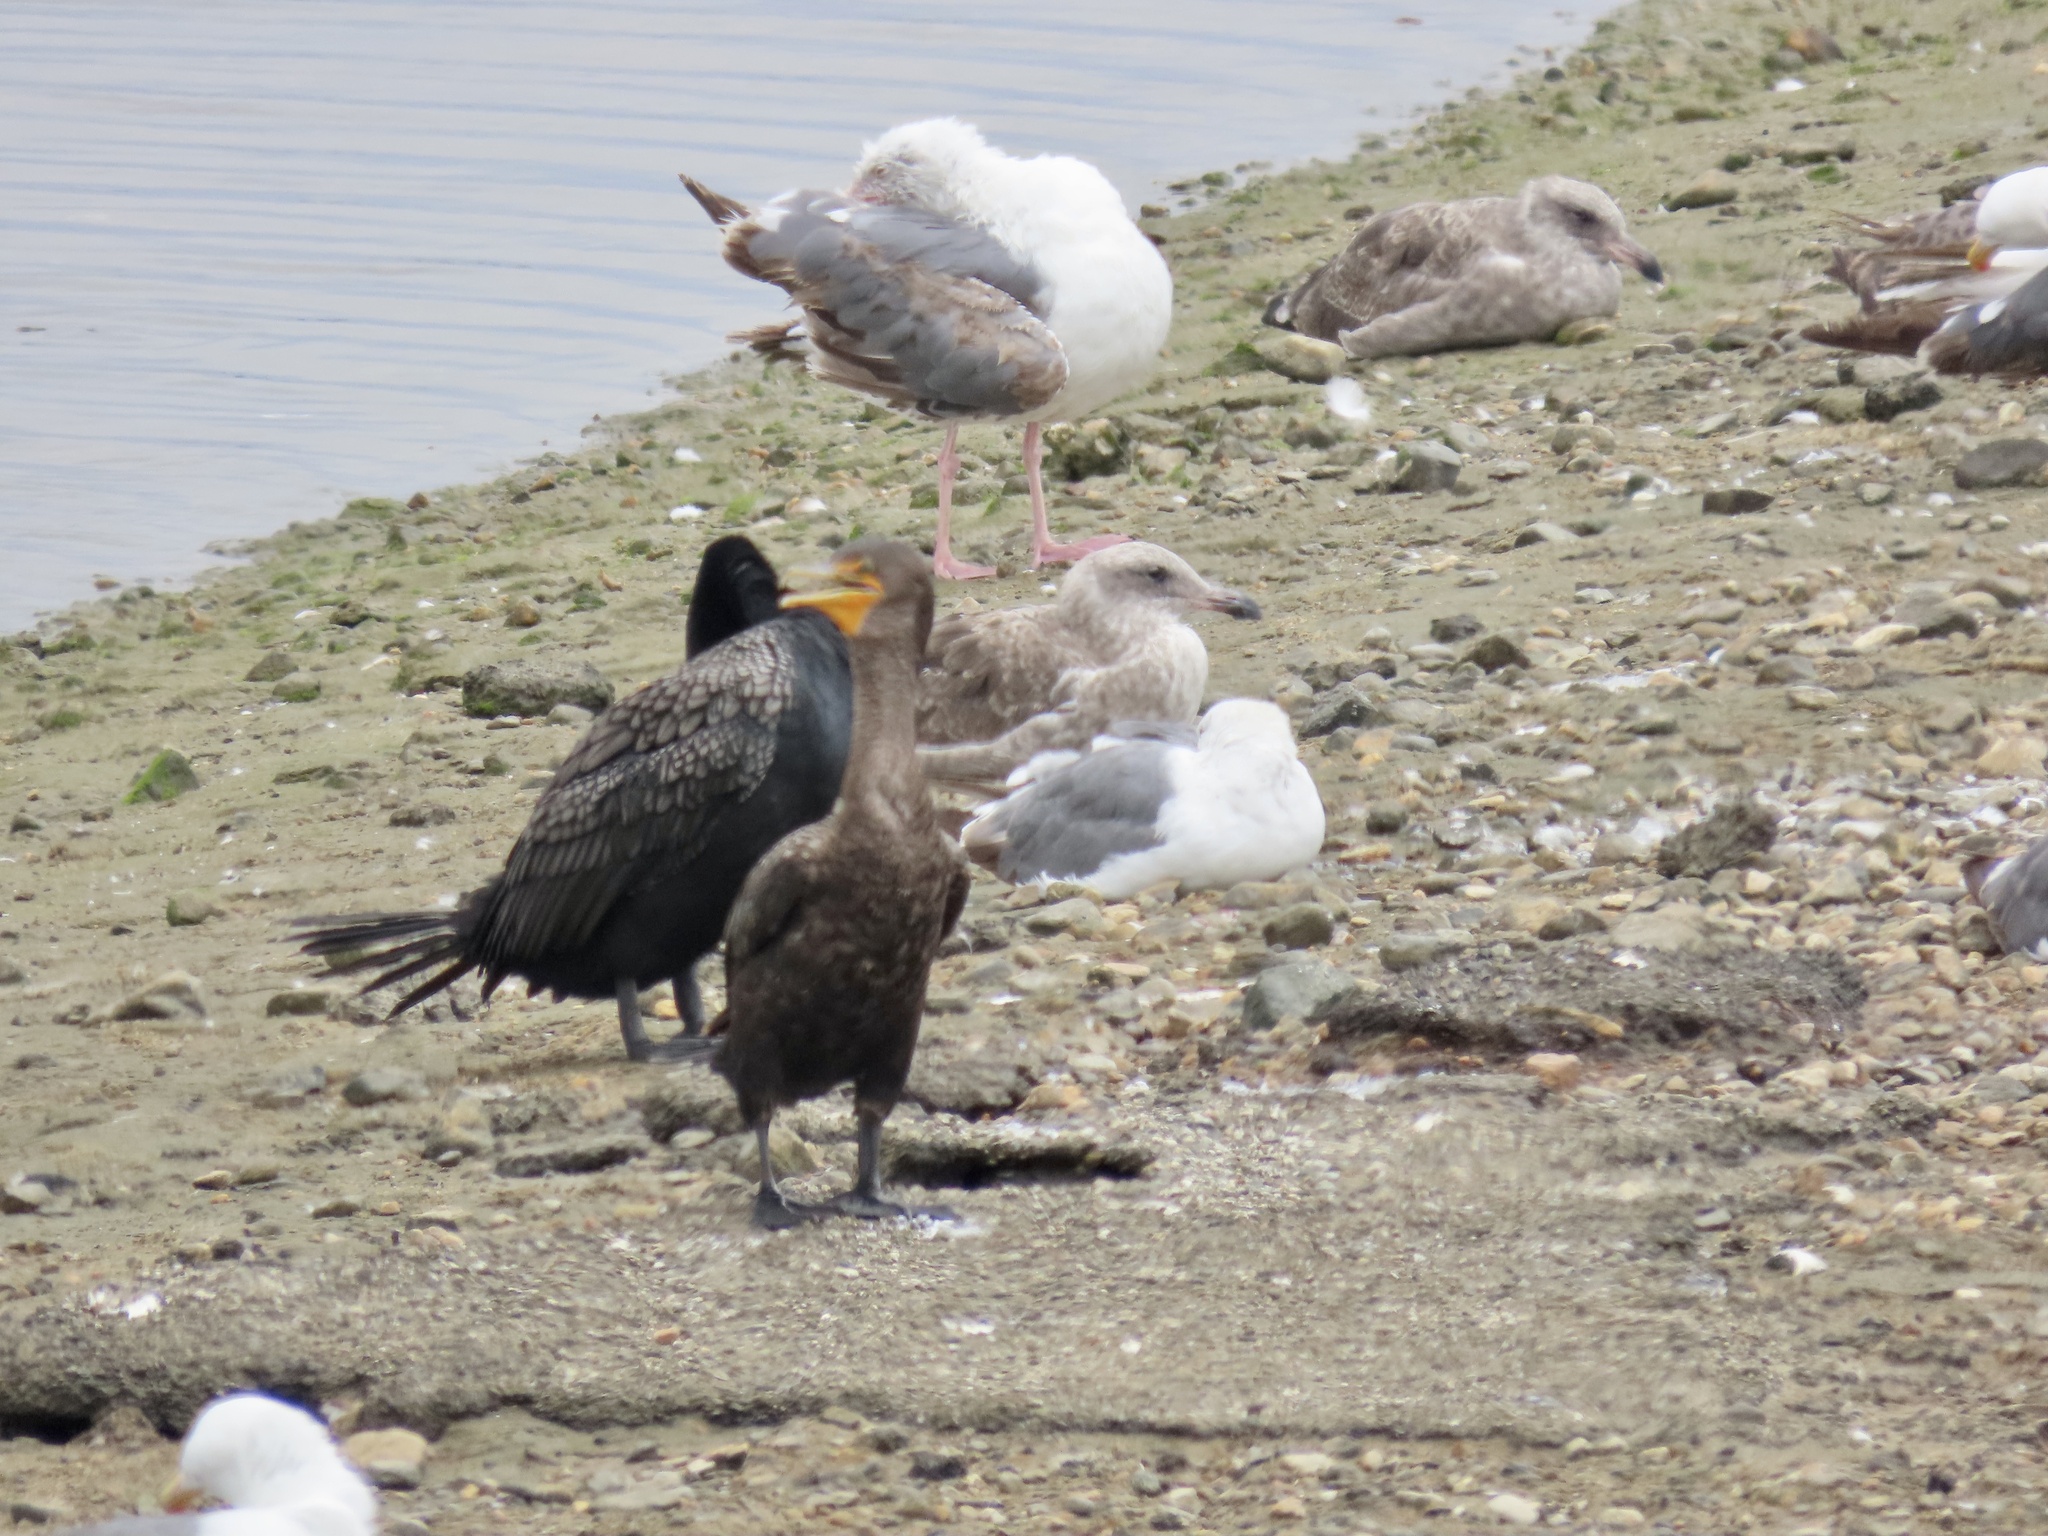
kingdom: Animalia
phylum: Chordata
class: Aves
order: Suliformes
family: Phalacrocoracidae
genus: Phalacrocorax
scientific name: Phalacrocorax auritus
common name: Double-crested cormorant
